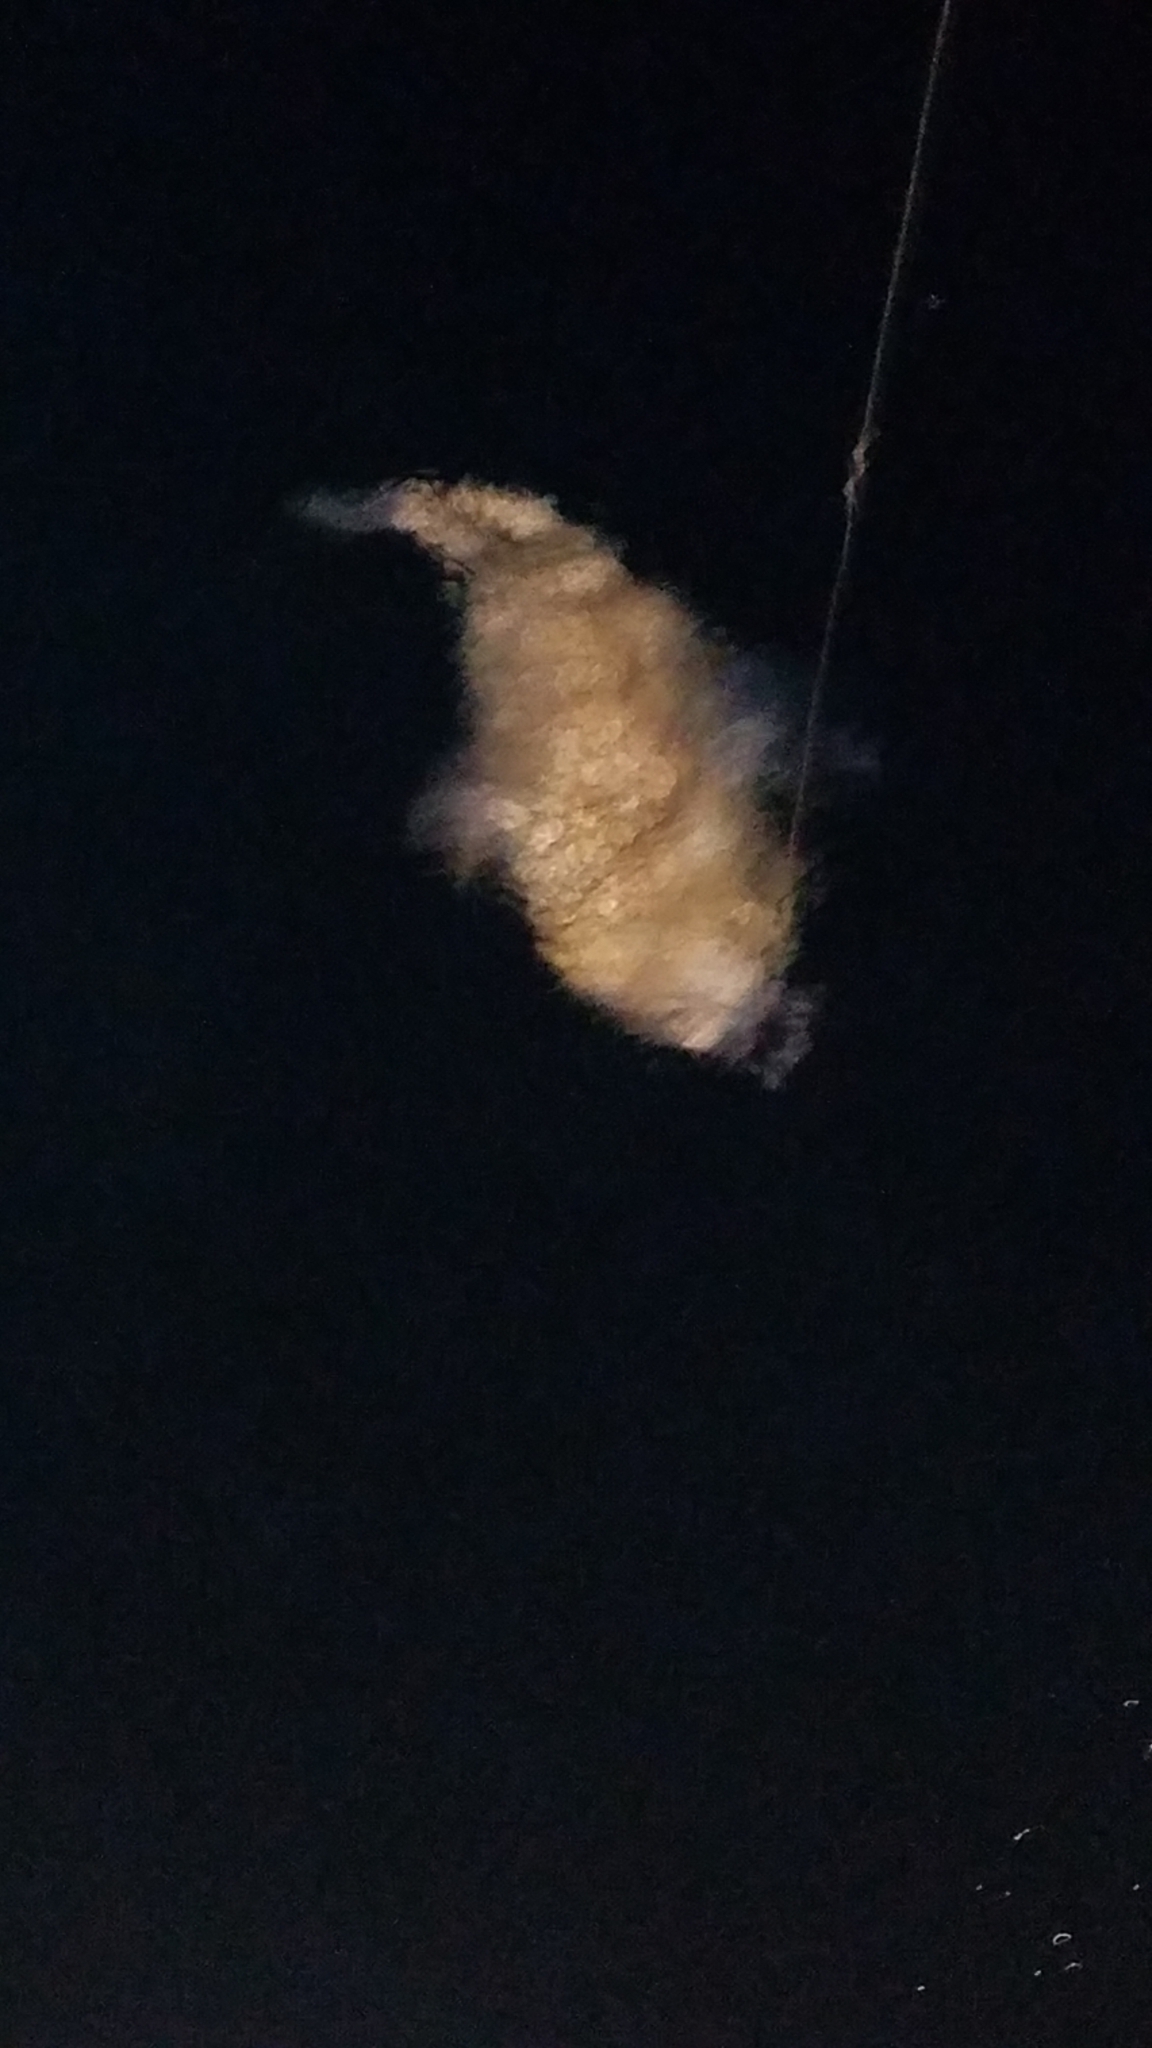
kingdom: Animalia
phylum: Chordata
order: Tetraodontiformes
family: Diodontidae
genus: Diodon
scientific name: Diodon hystrix
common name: Giant porcupinefish
